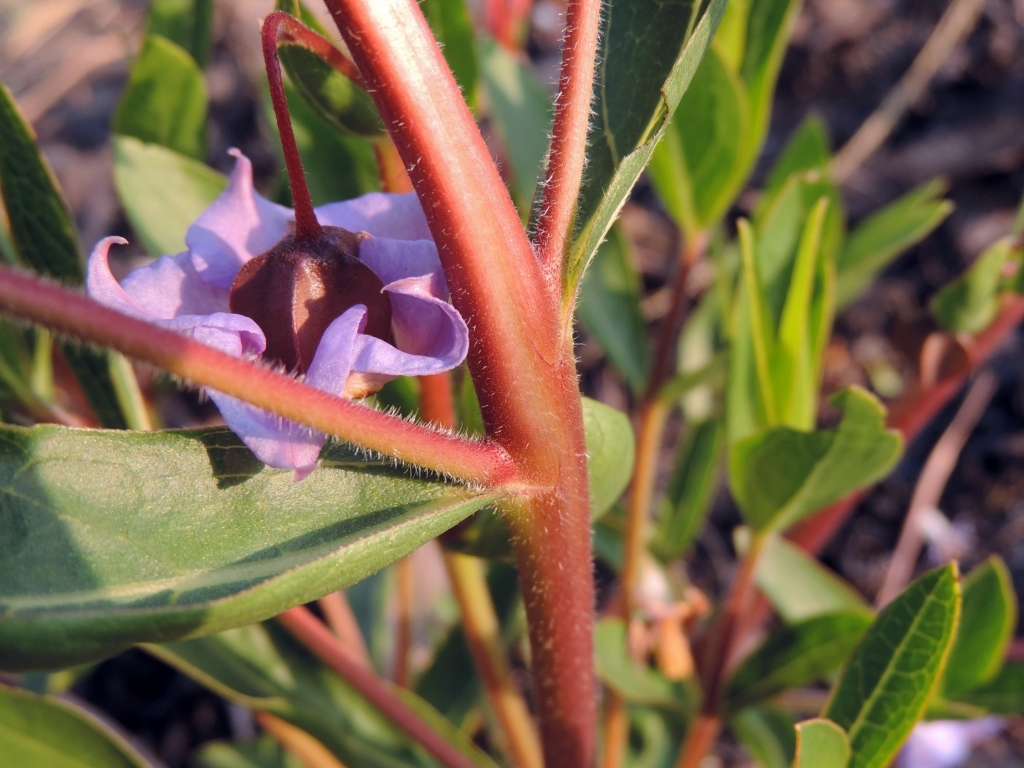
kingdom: Plantae
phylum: Tracheophyta
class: Magnoliopsida
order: Boraginales
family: Boraginaceae
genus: Trichodesma
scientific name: Trichodesma ambacense
